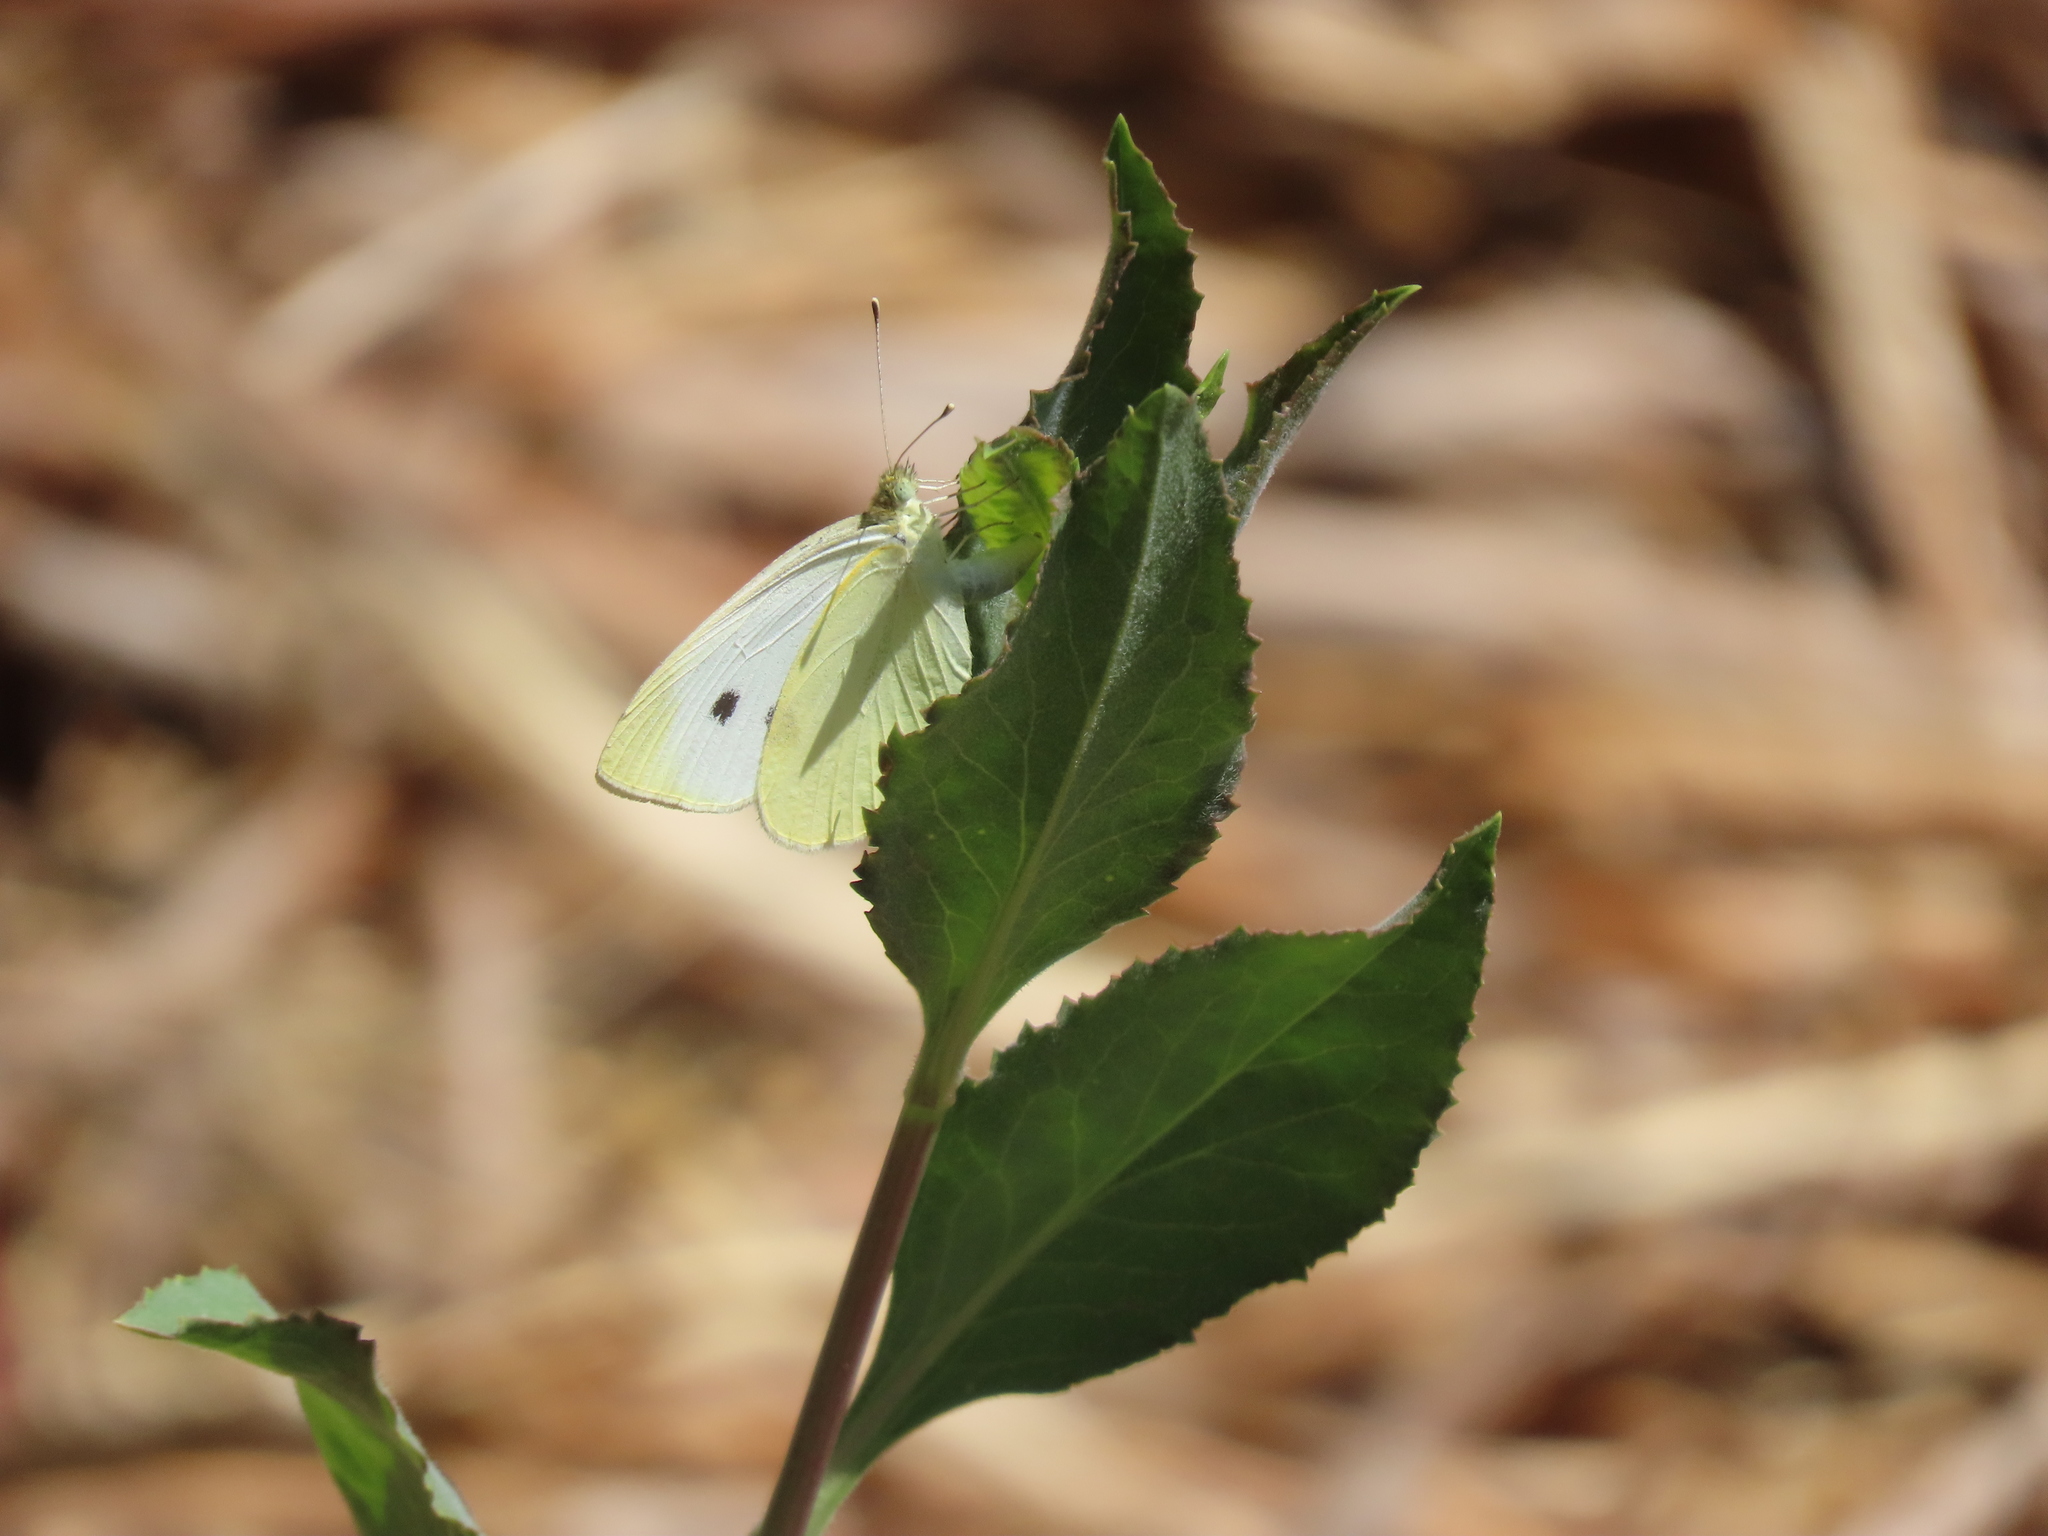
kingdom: Animalia
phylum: Arthropoda
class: Insecta
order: Lepidoptera
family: Pieridae
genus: Pieris
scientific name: Pieris rapae
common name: Small white
